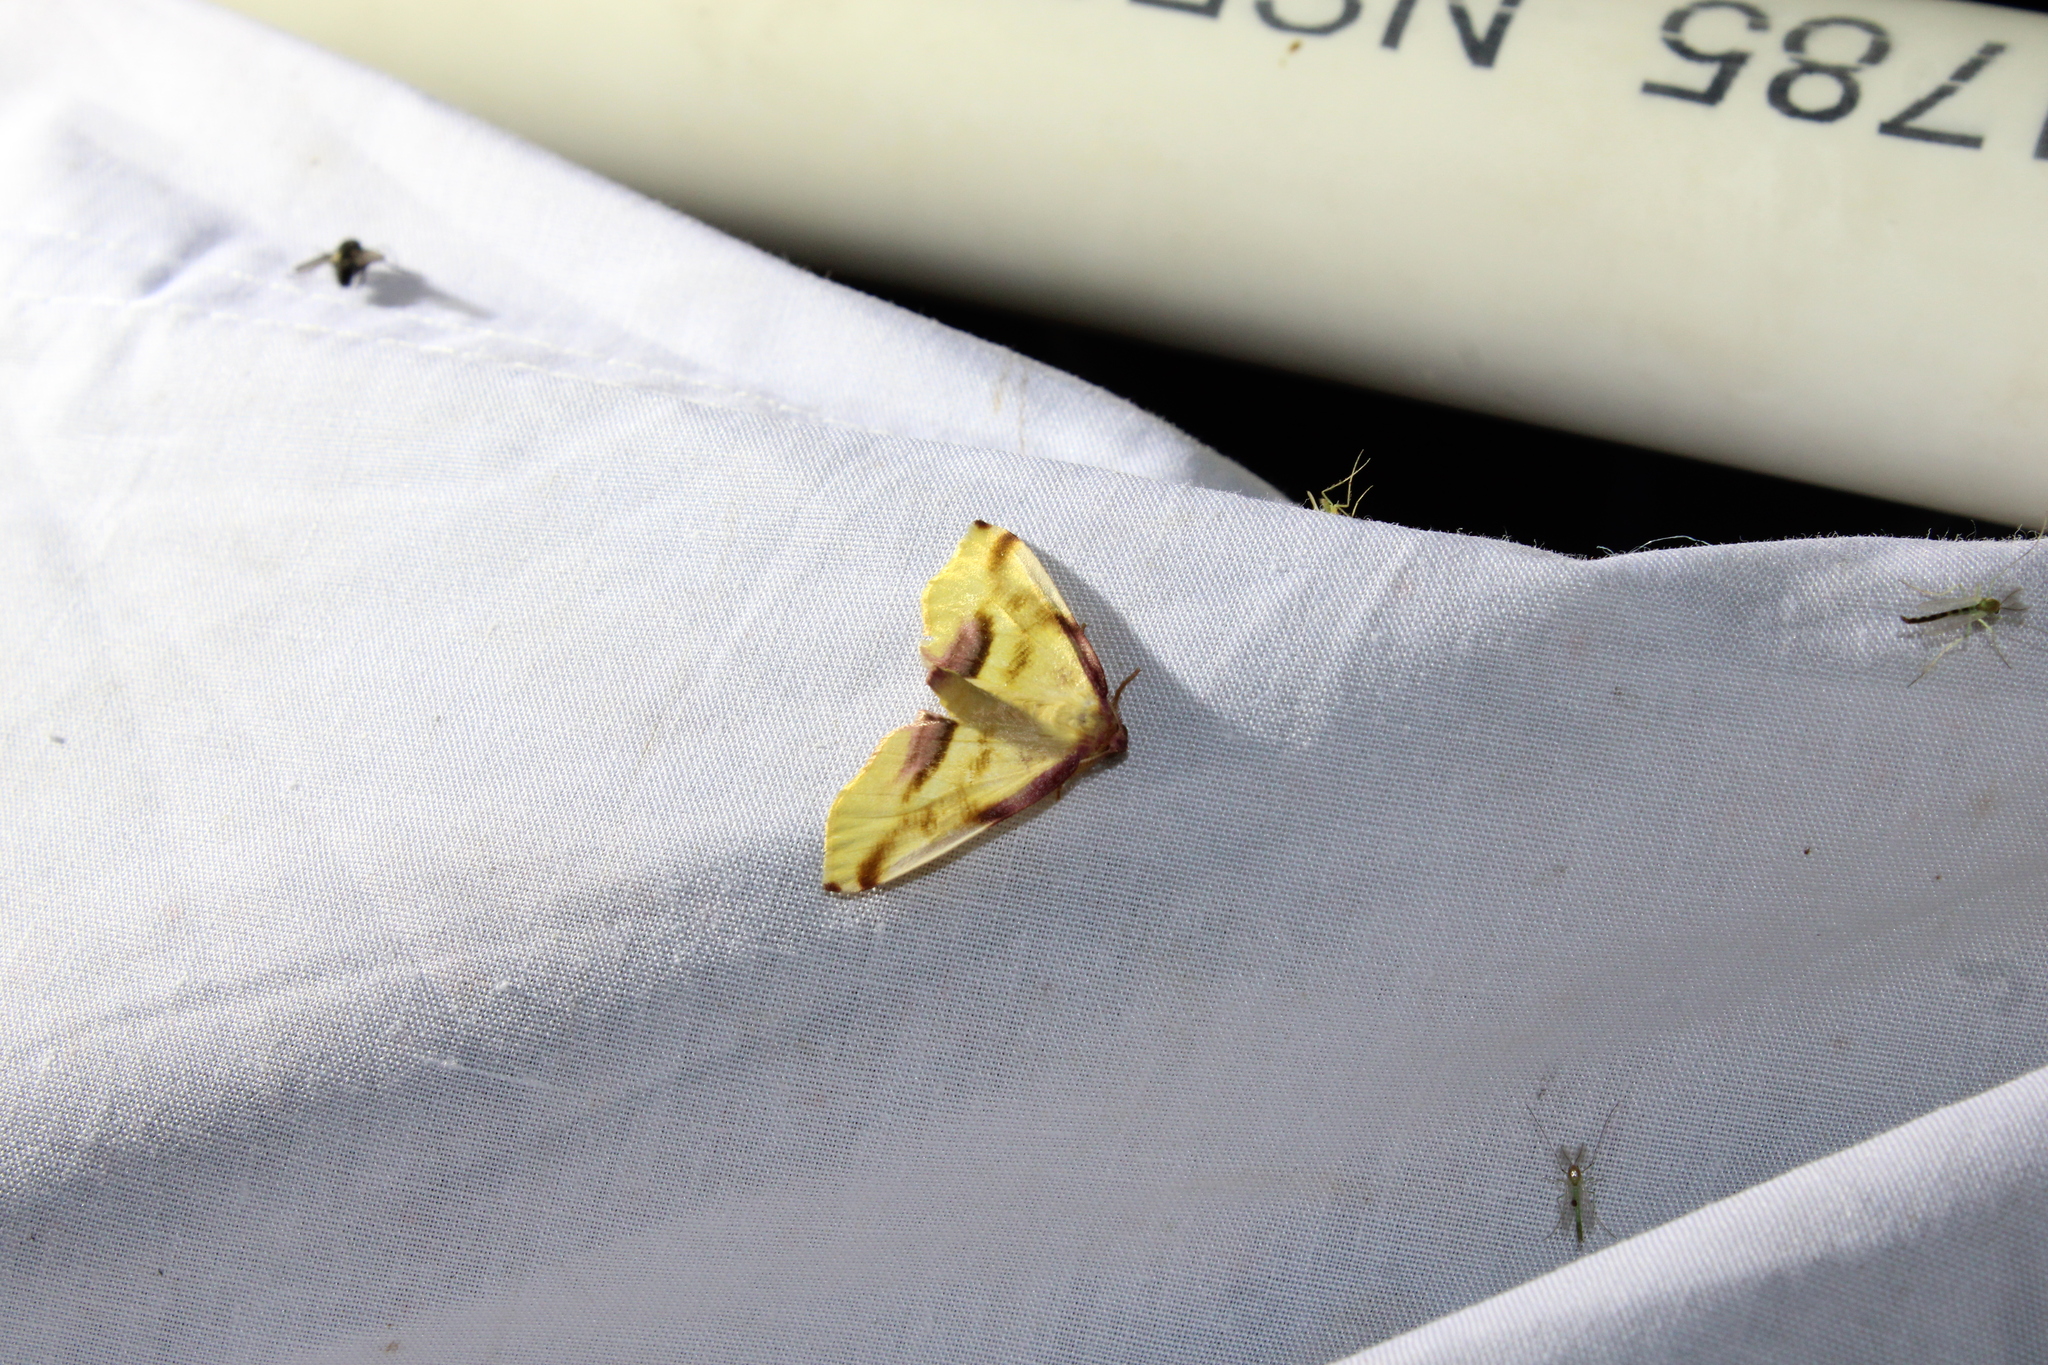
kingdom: Animalia
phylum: Arthropoda
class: Insecta
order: Lepidoptera
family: Geometridae
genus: Plagodis
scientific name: Plagodis serinaria
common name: Lemon plagodis
